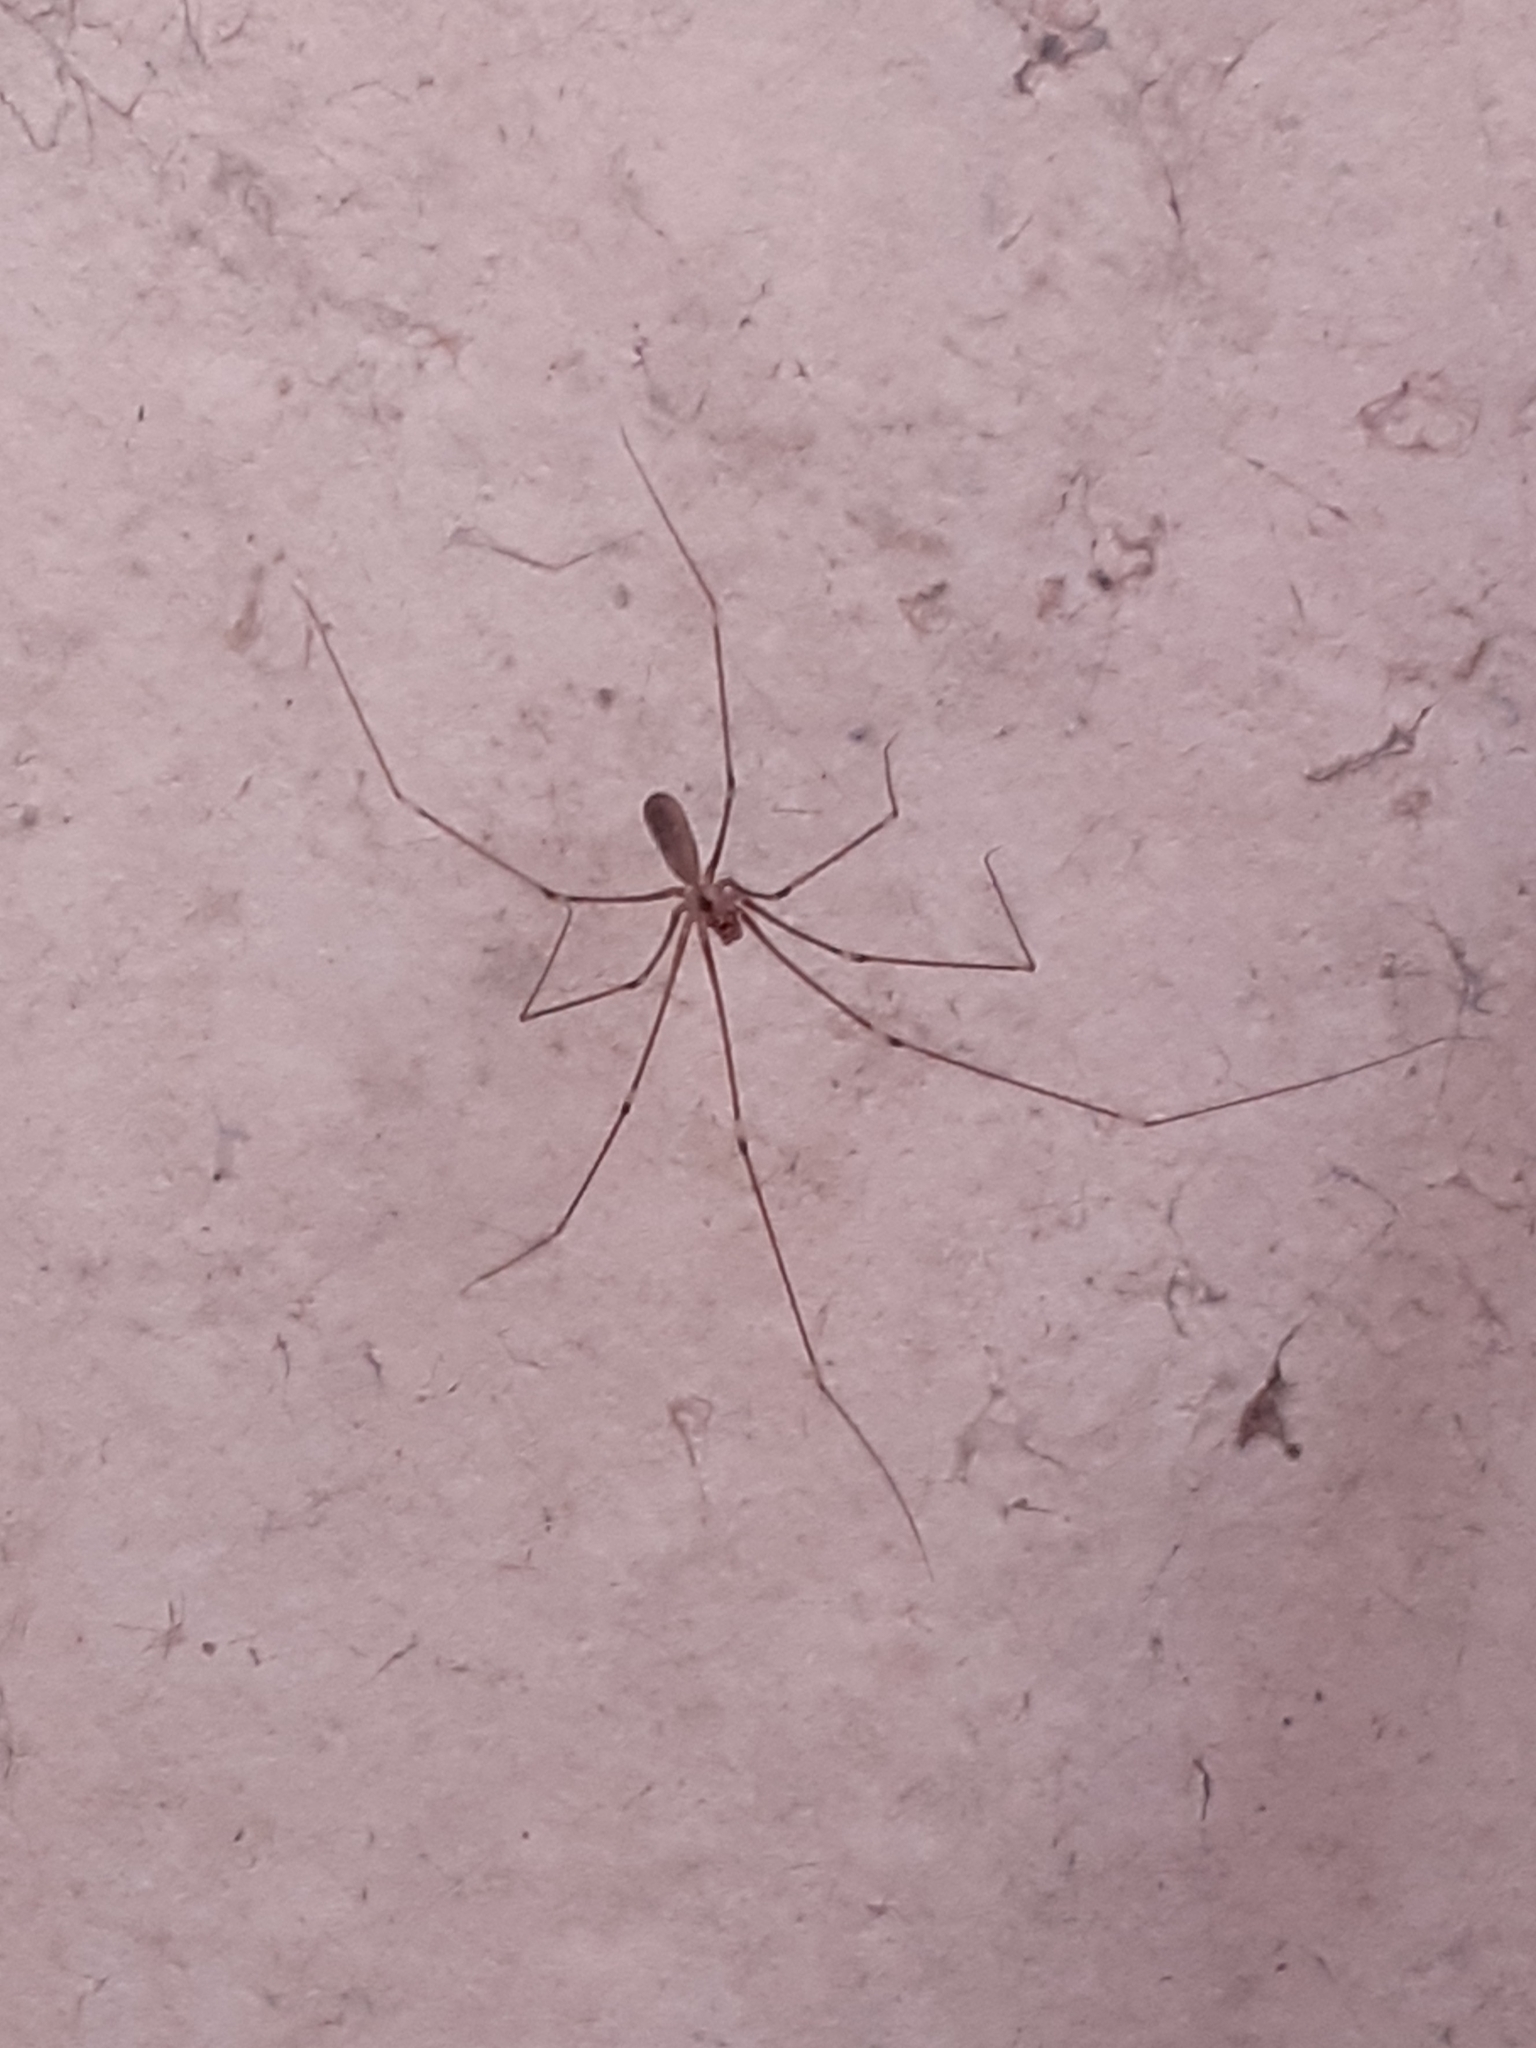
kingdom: Animalia
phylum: Arthropoda
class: Arachnida
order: Araneae
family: Pholcidae
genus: Pholcus
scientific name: Pholcus phalangioides
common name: Longbodied cellar spider
